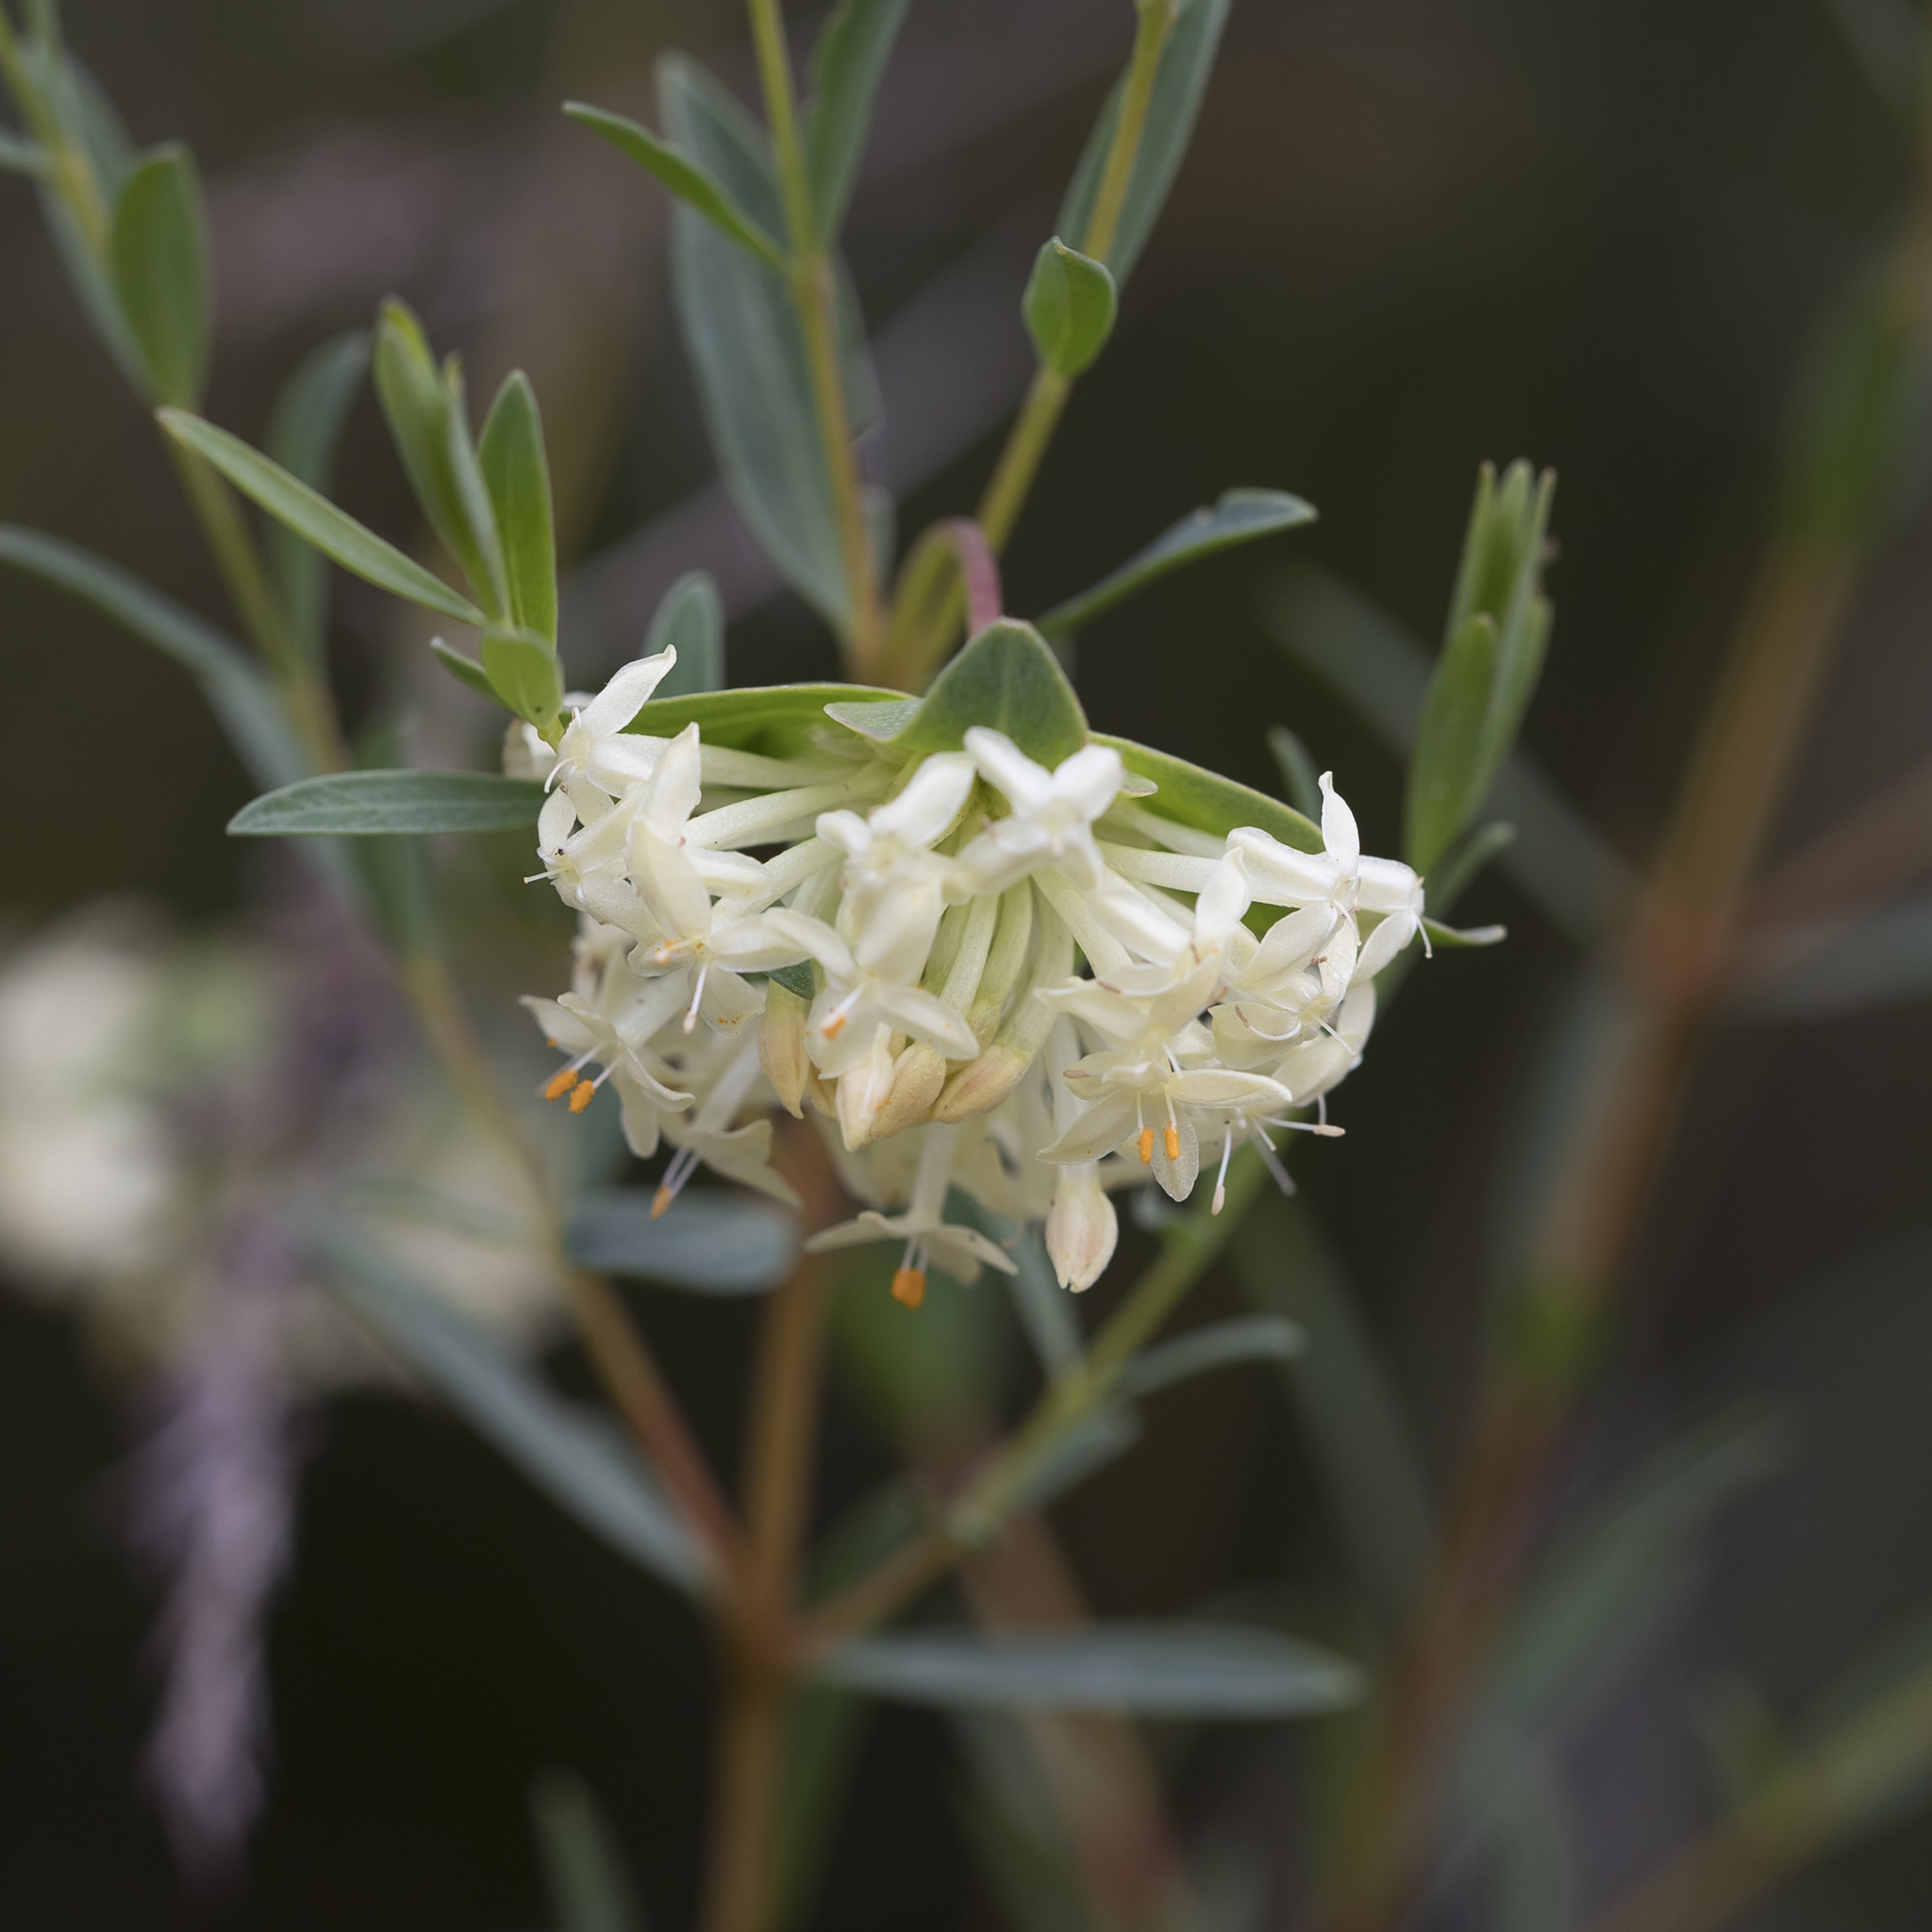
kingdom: Plantae
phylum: Tracheophyta
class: Magnoliopsida
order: Malvales
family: Thymelaeaceae
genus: Pimelea
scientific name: Pimelea linifolia
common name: Queen-of-the-bush
